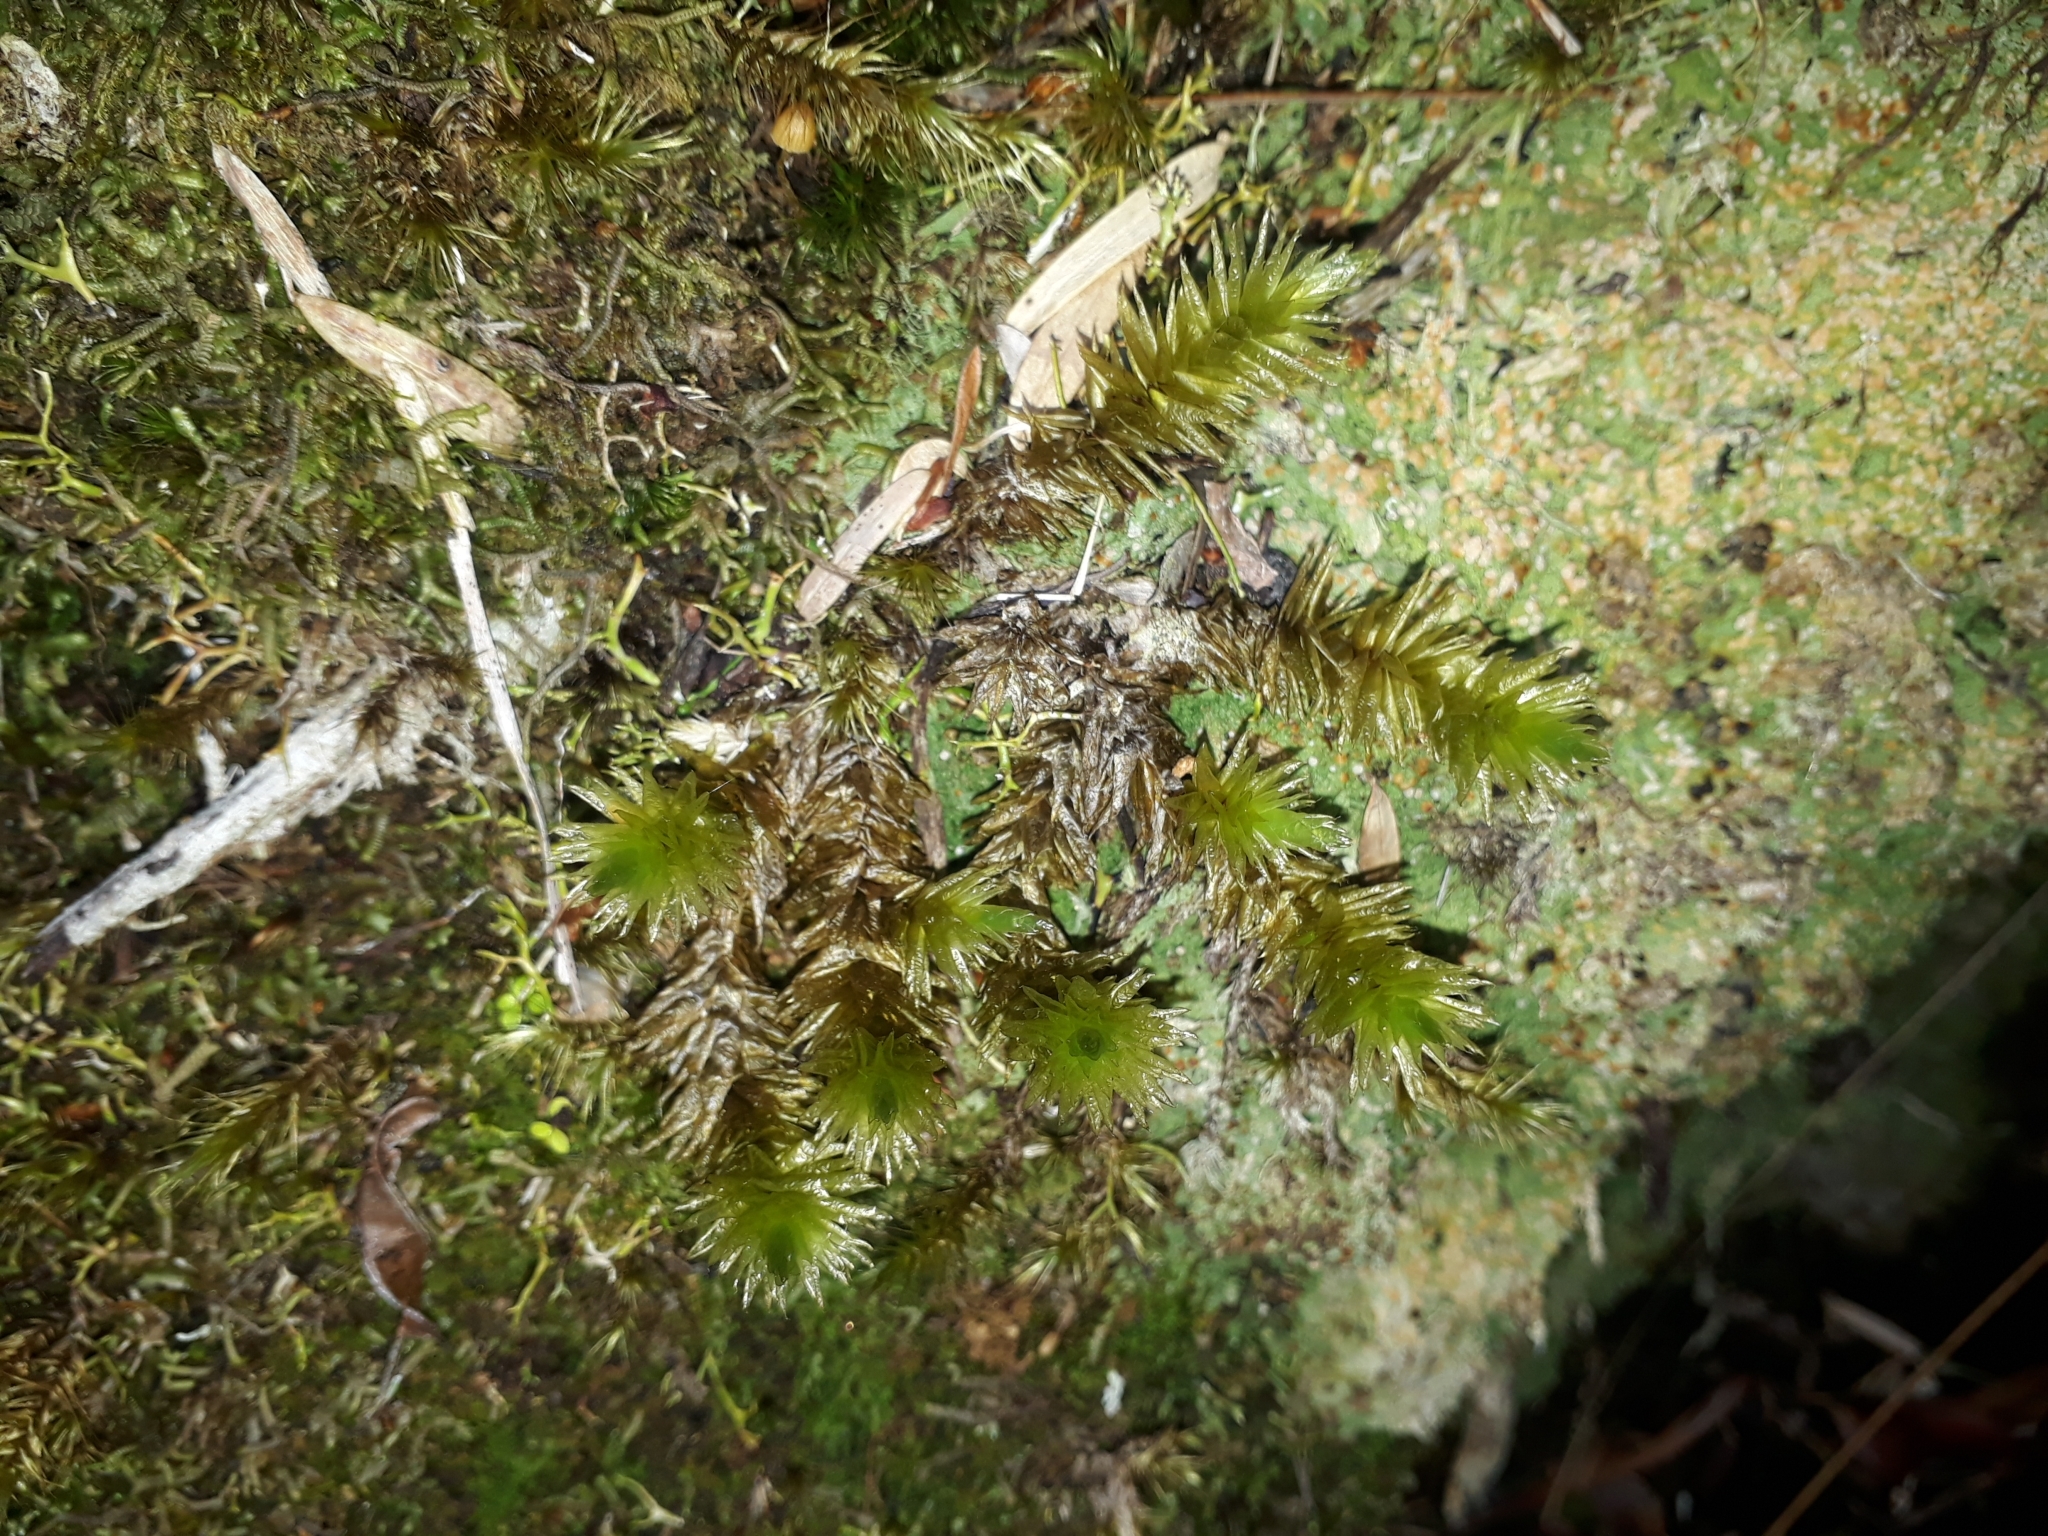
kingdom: Plantae
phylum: Bryophyta
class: Bryopsida
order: Bryales
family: Pulchrinodaceae
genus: Pulchrinodus
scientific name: Pulchrinodus inflatus
